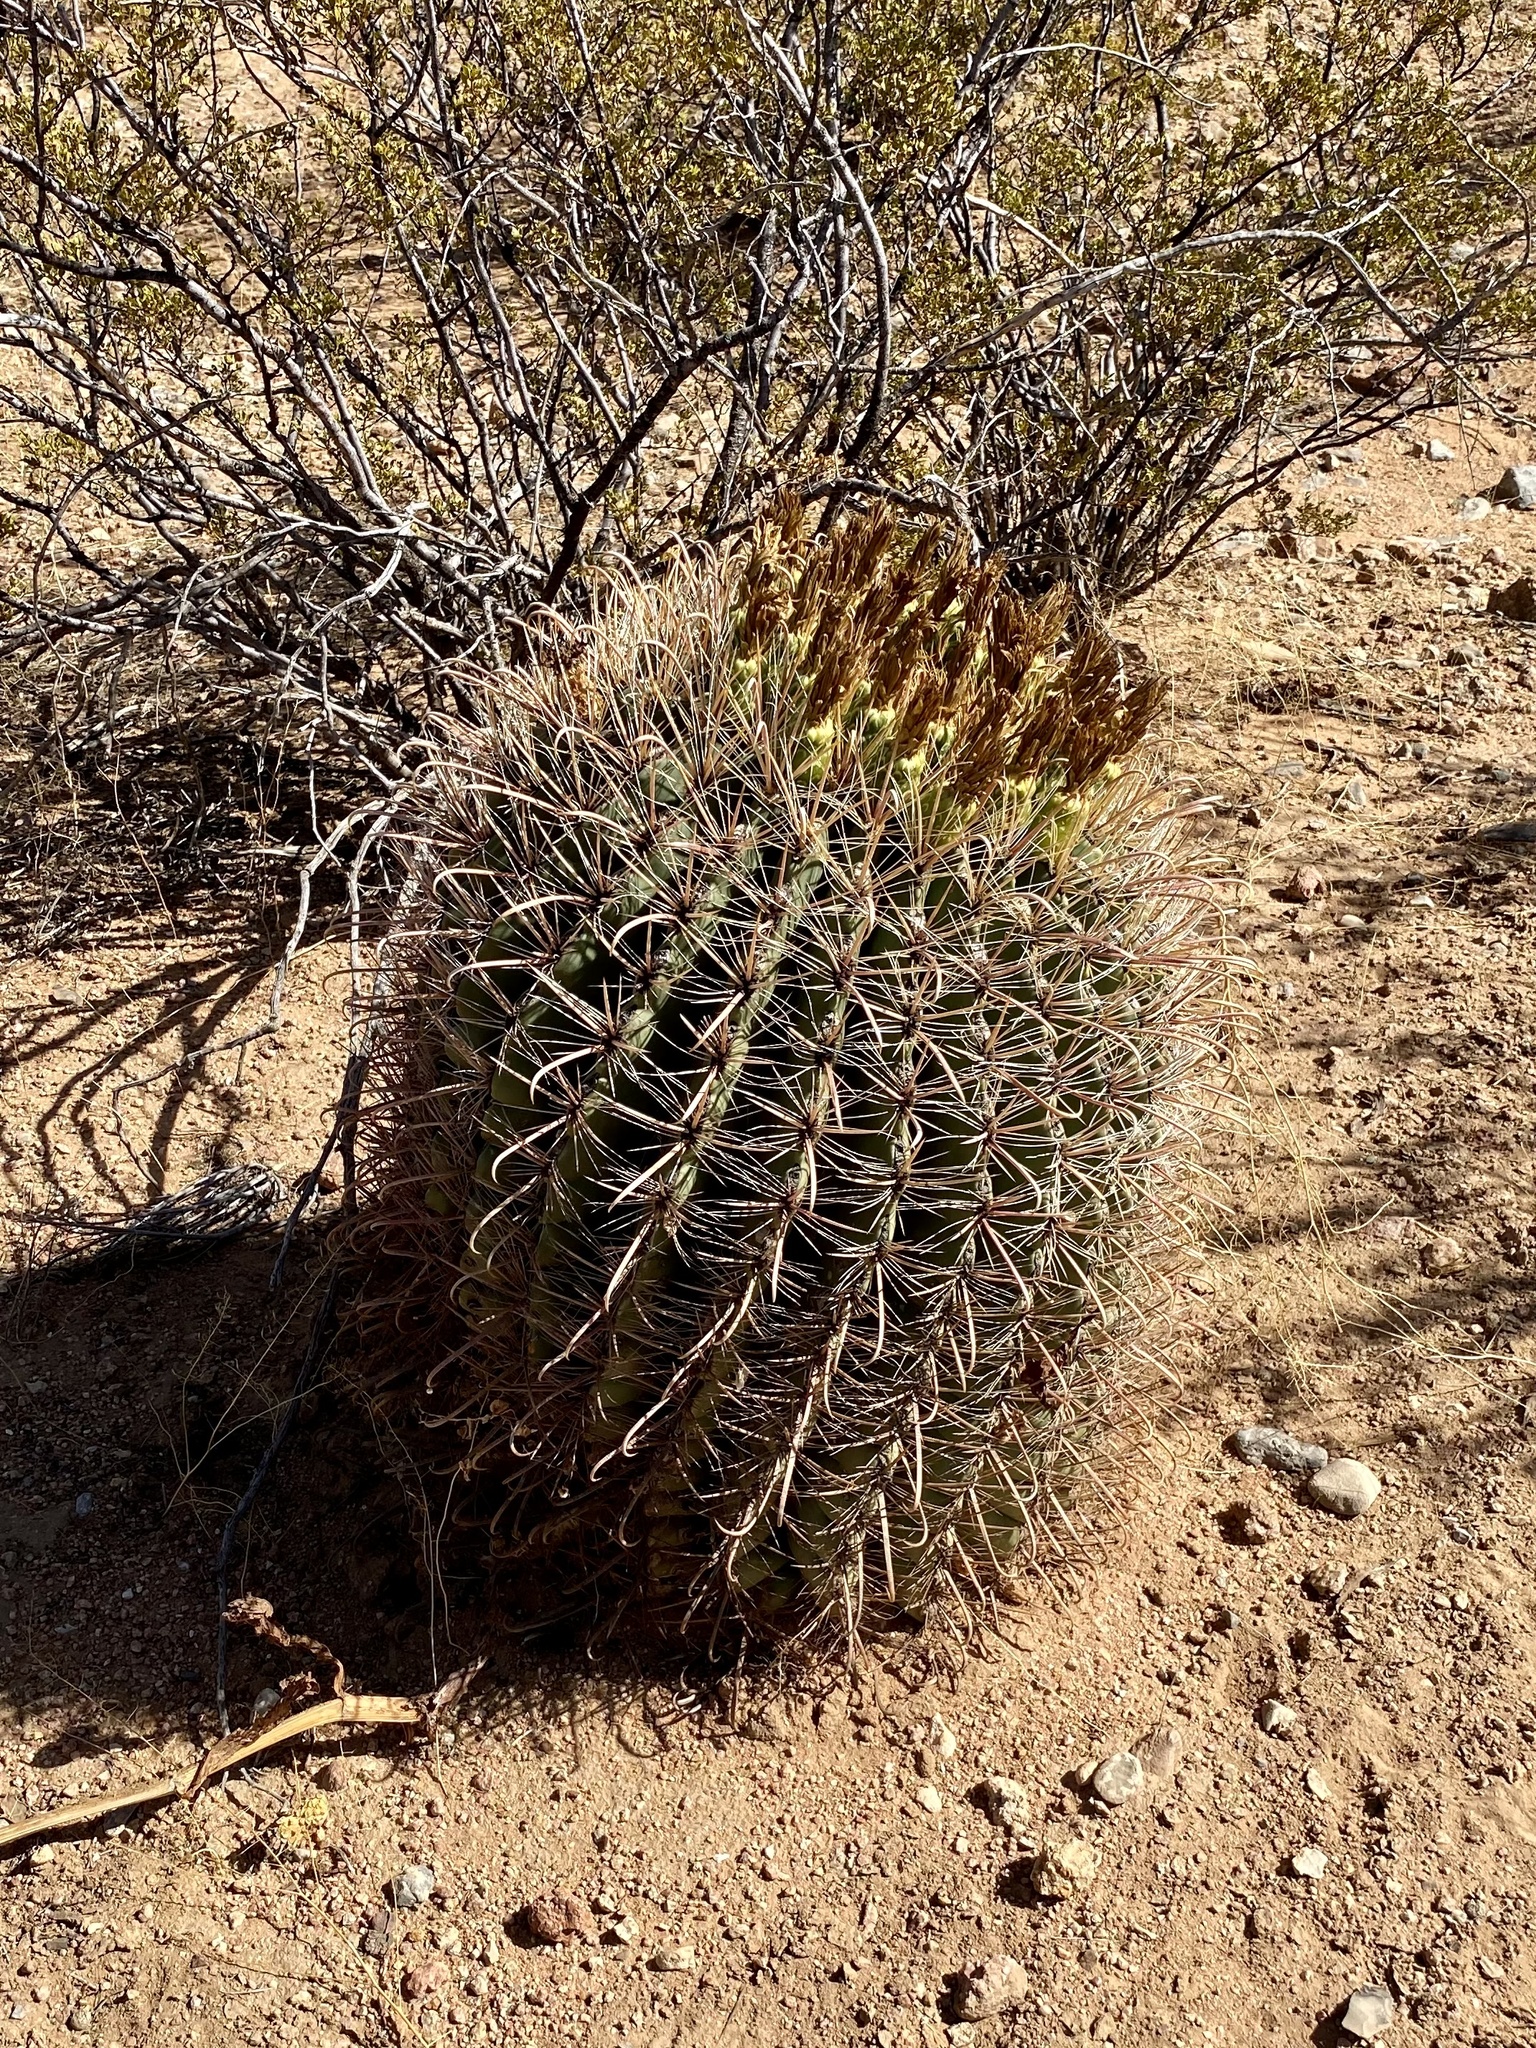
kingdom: Plantae
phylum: Tracheophyta
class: Magnoliopsida
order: Caryophyllales
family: Cactaceae
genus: Ferocactus
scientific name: Ferocactus wislizeni
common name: Candy barrel cactus
